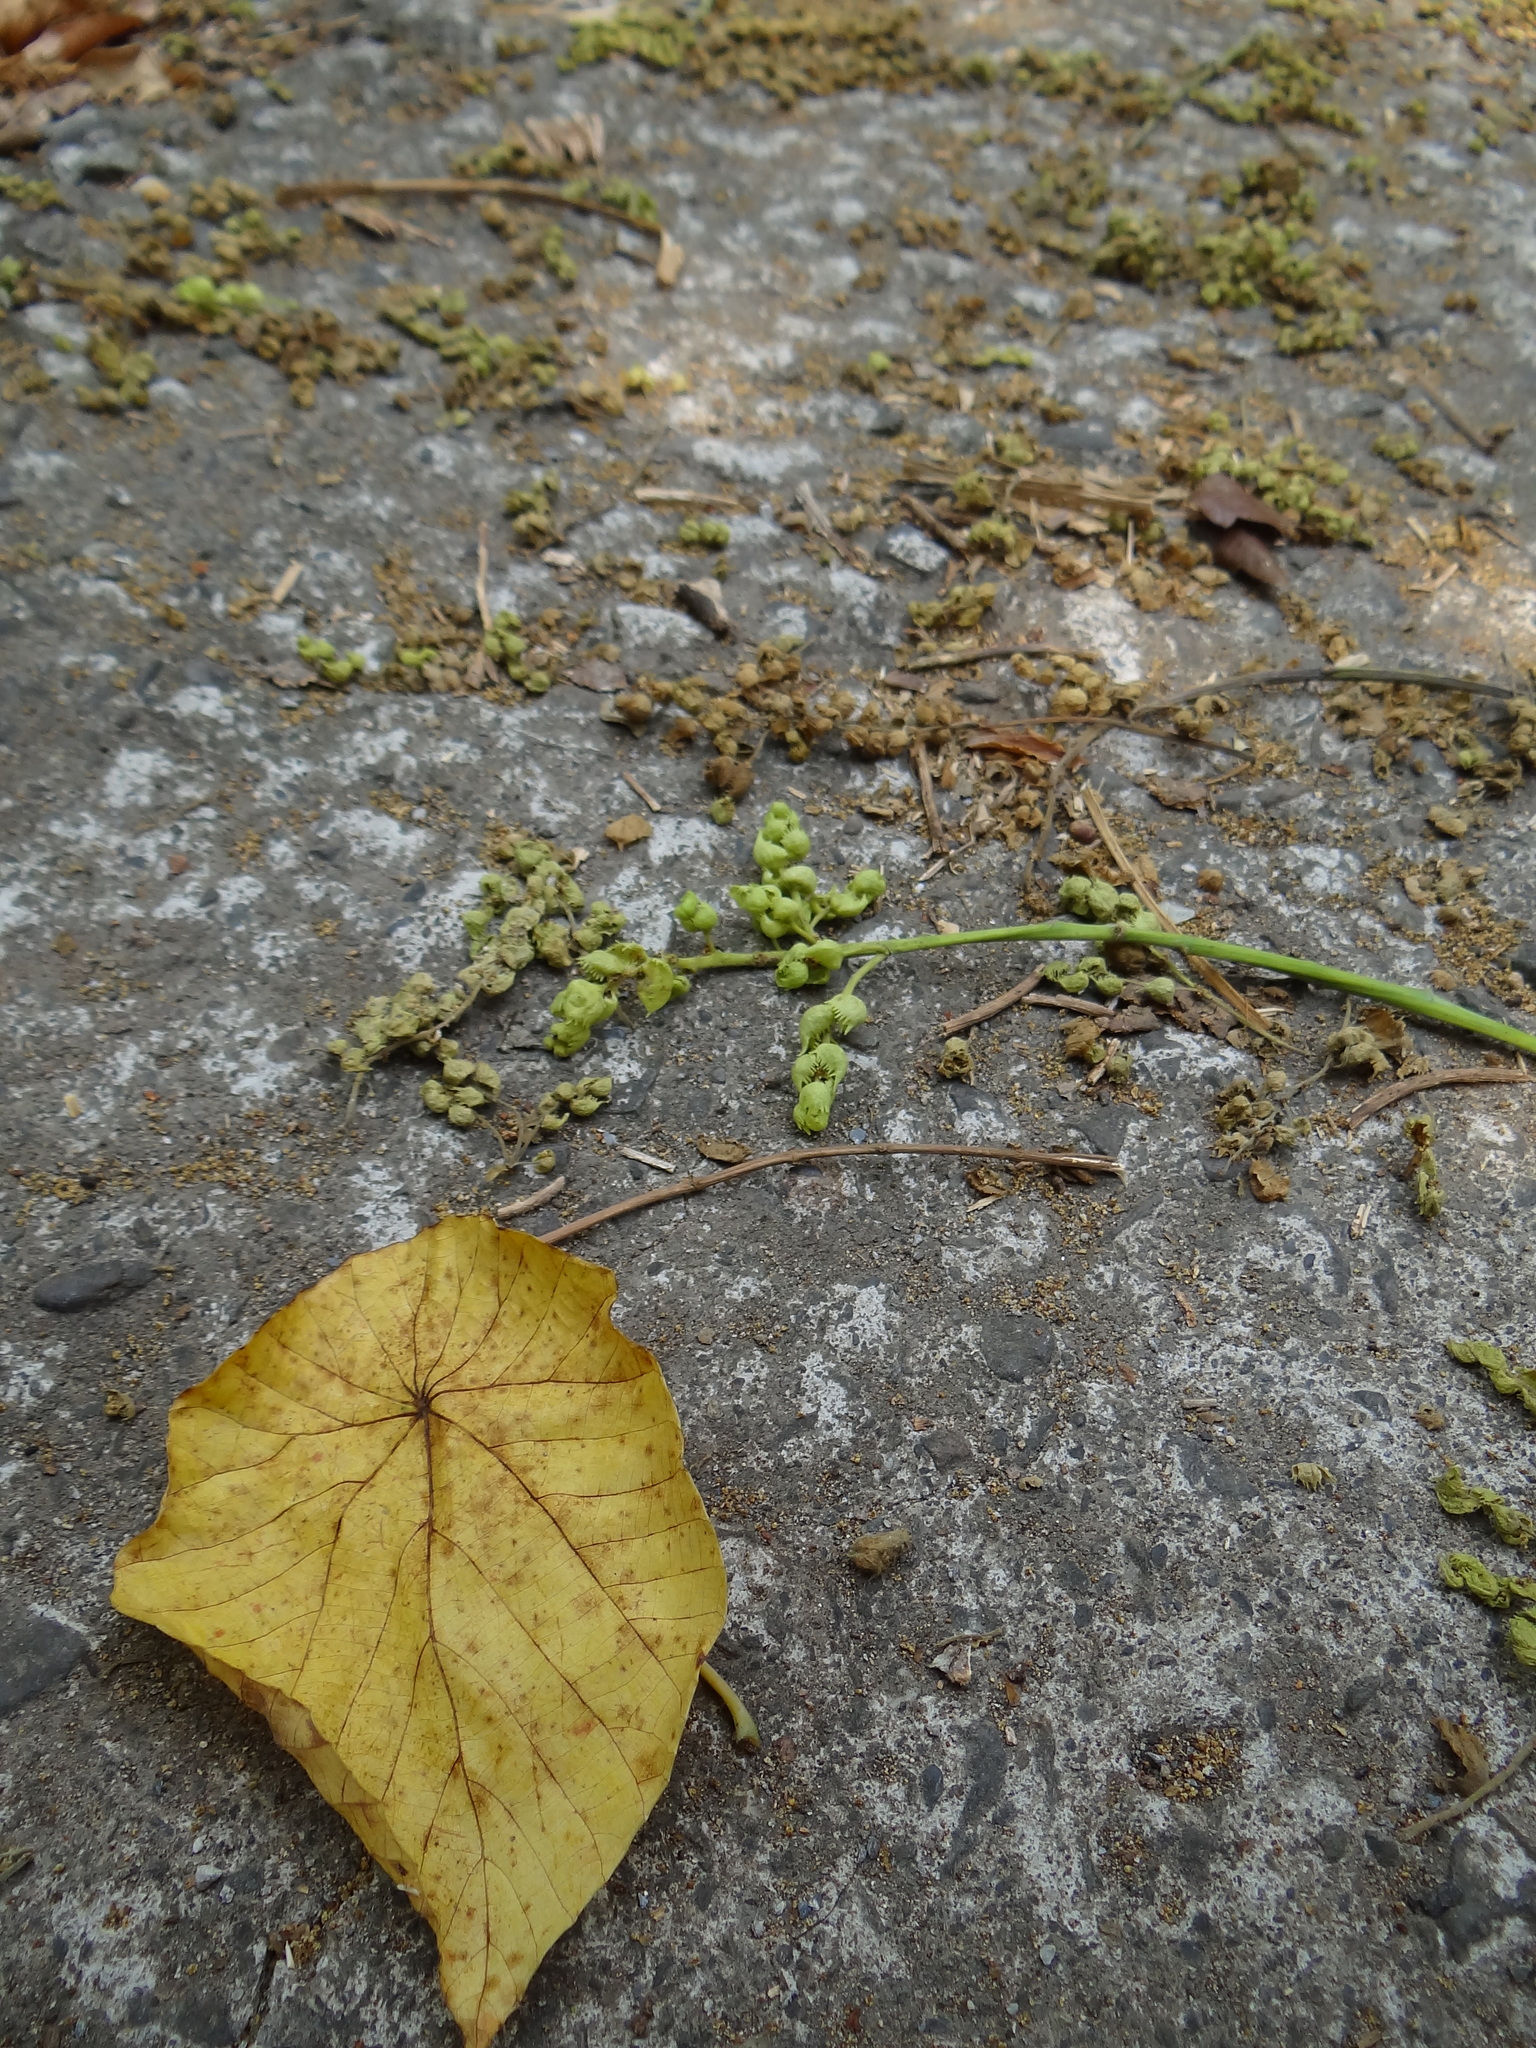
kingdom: Plantae
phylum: Tracheophyta
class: Magnoliopsida
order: Malpighiales
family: Euphorbiaceae
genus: Macaranga
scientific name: Macaranga tanarius
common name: Parasol leaf tree
